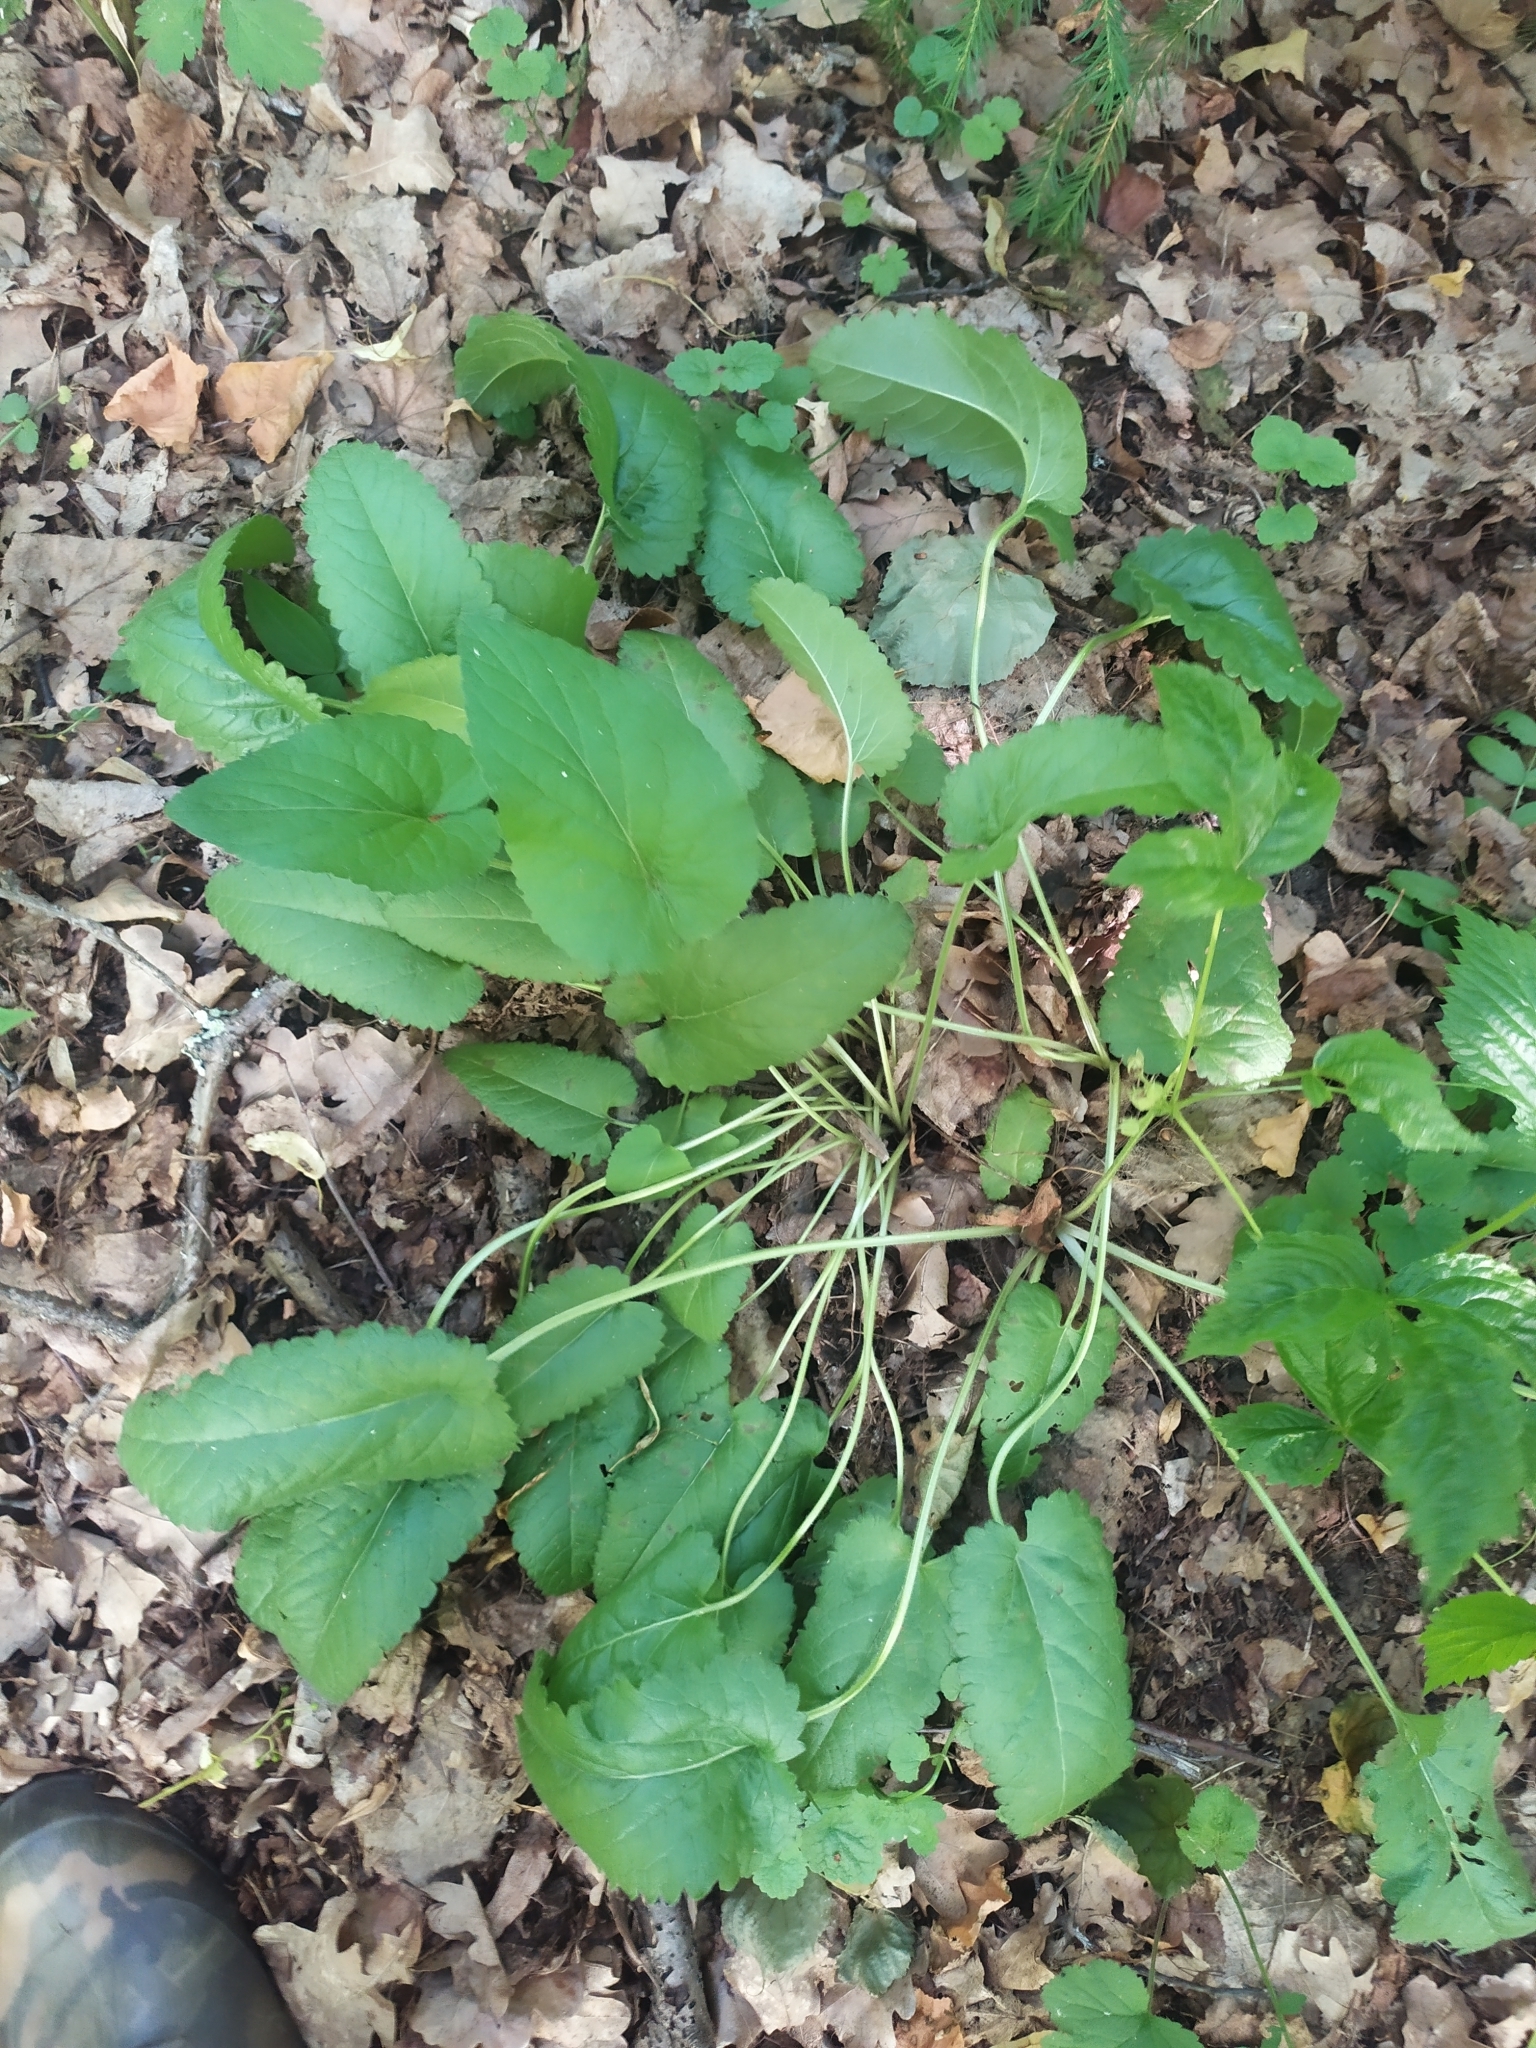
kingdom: Plantae
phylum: Tracheophyta
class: Magnoliopsida
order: Lamiales
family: Lamiaceae
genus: Betonica
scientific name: Betonica officinalis
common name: Bishop's-wort
